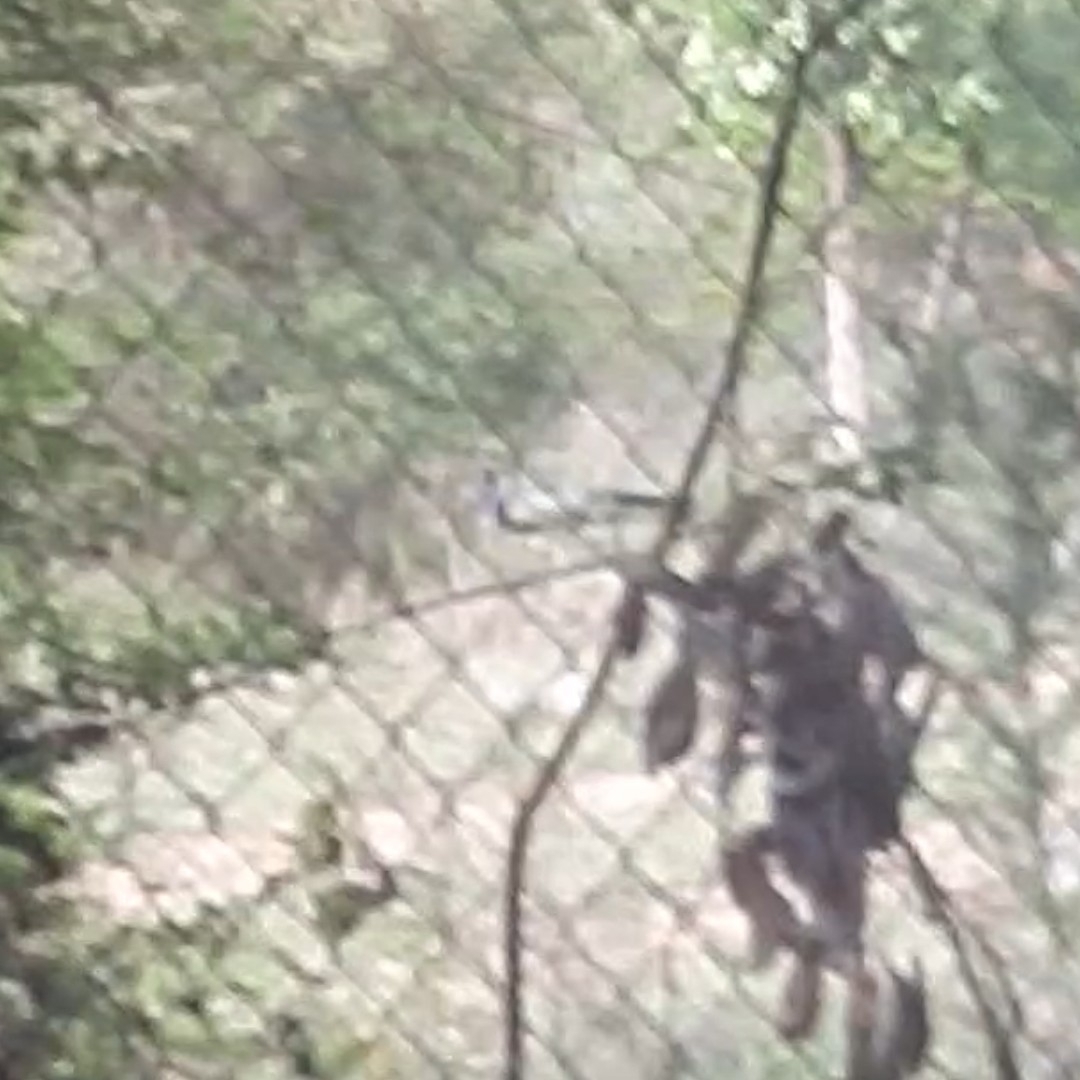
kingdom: Animalia
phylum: Chordata
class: Aves
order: Galliformes
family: Phasianidae
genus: Pavo
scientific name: Pavo cristatus
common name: Indian peafowl
